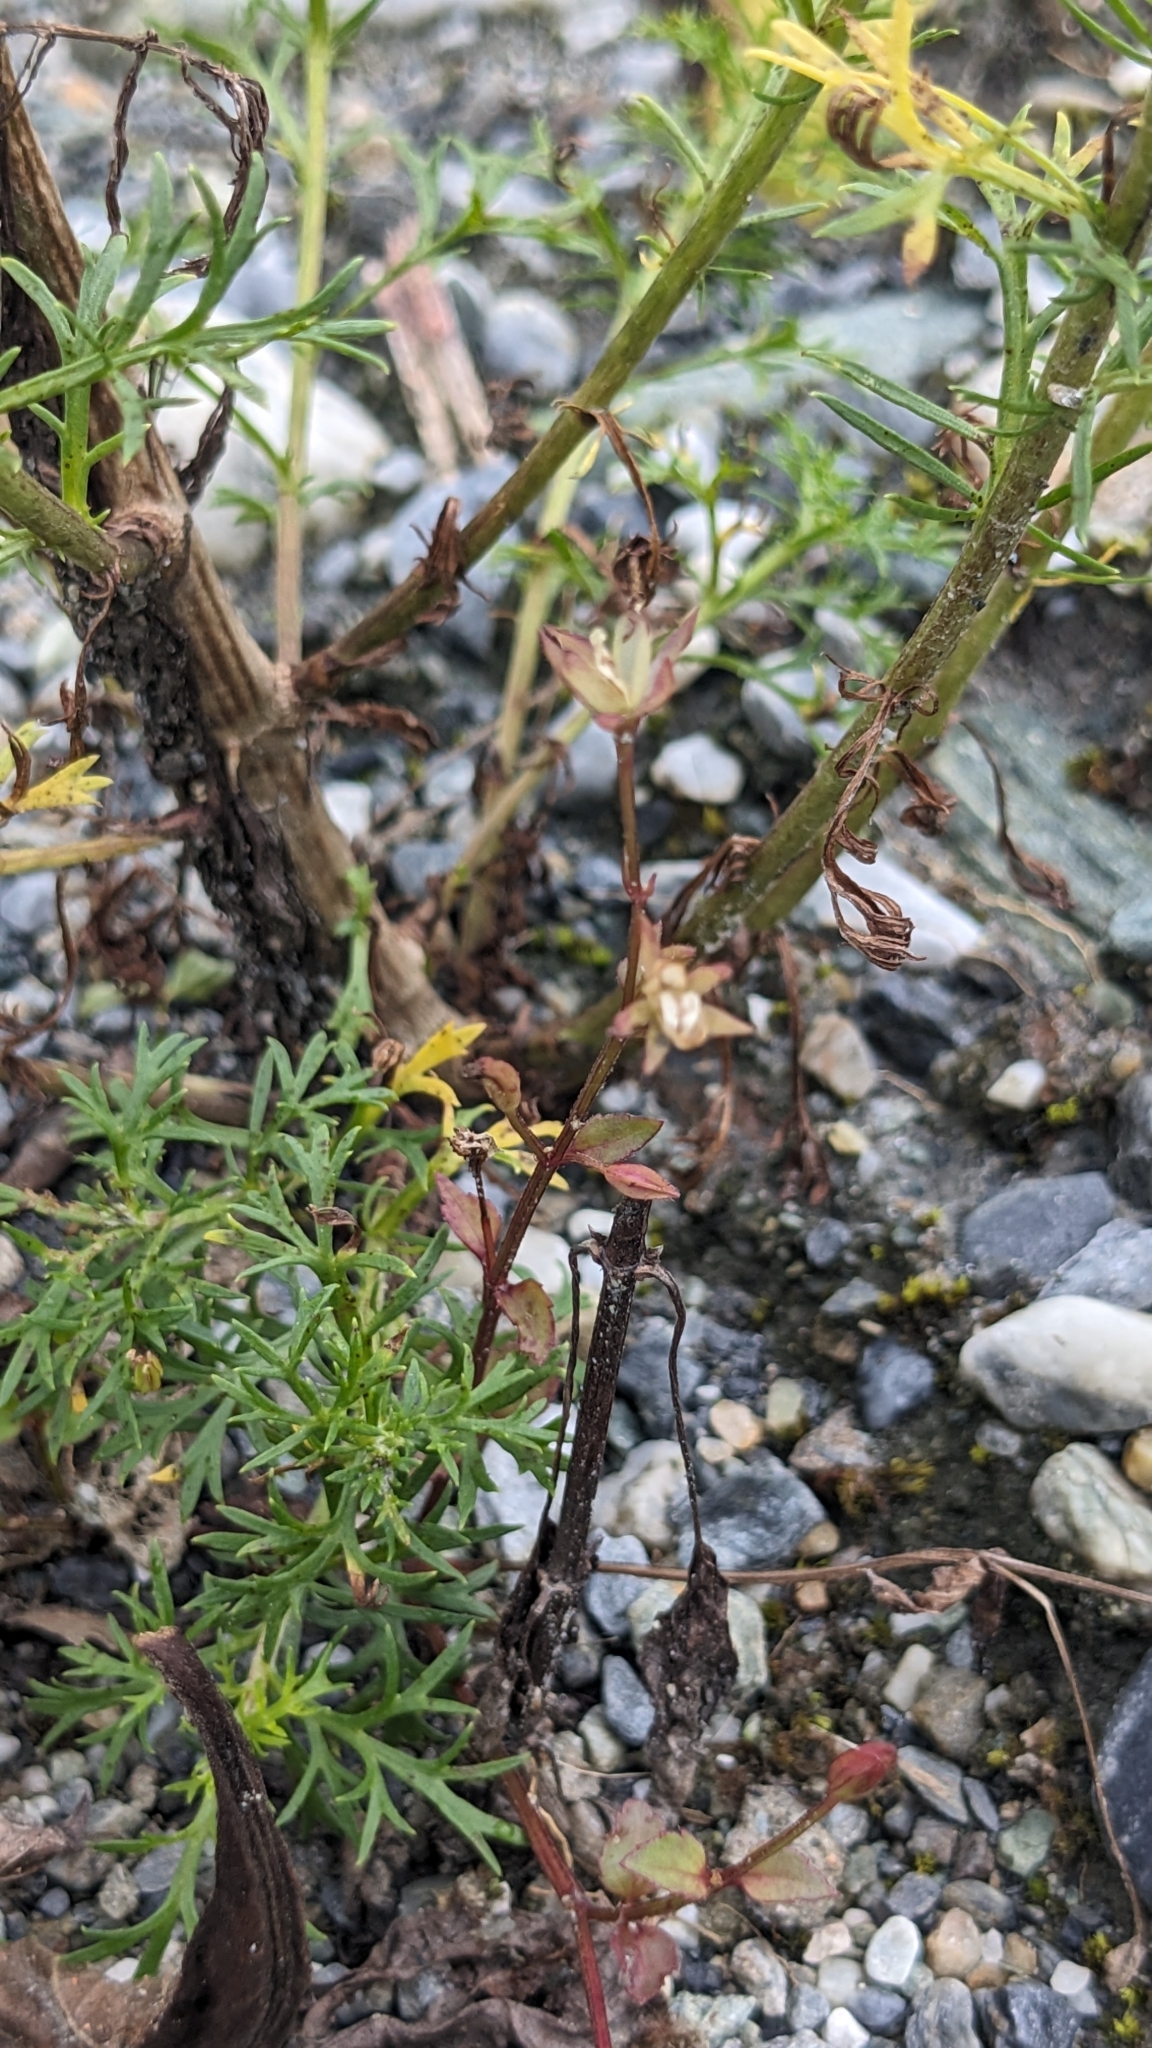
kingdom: Plantae
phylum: Tracheophyta
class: Magnoliopsida
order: Lamiales
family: Linderniaceae
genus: Torenia
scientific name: Torenia crustacea
